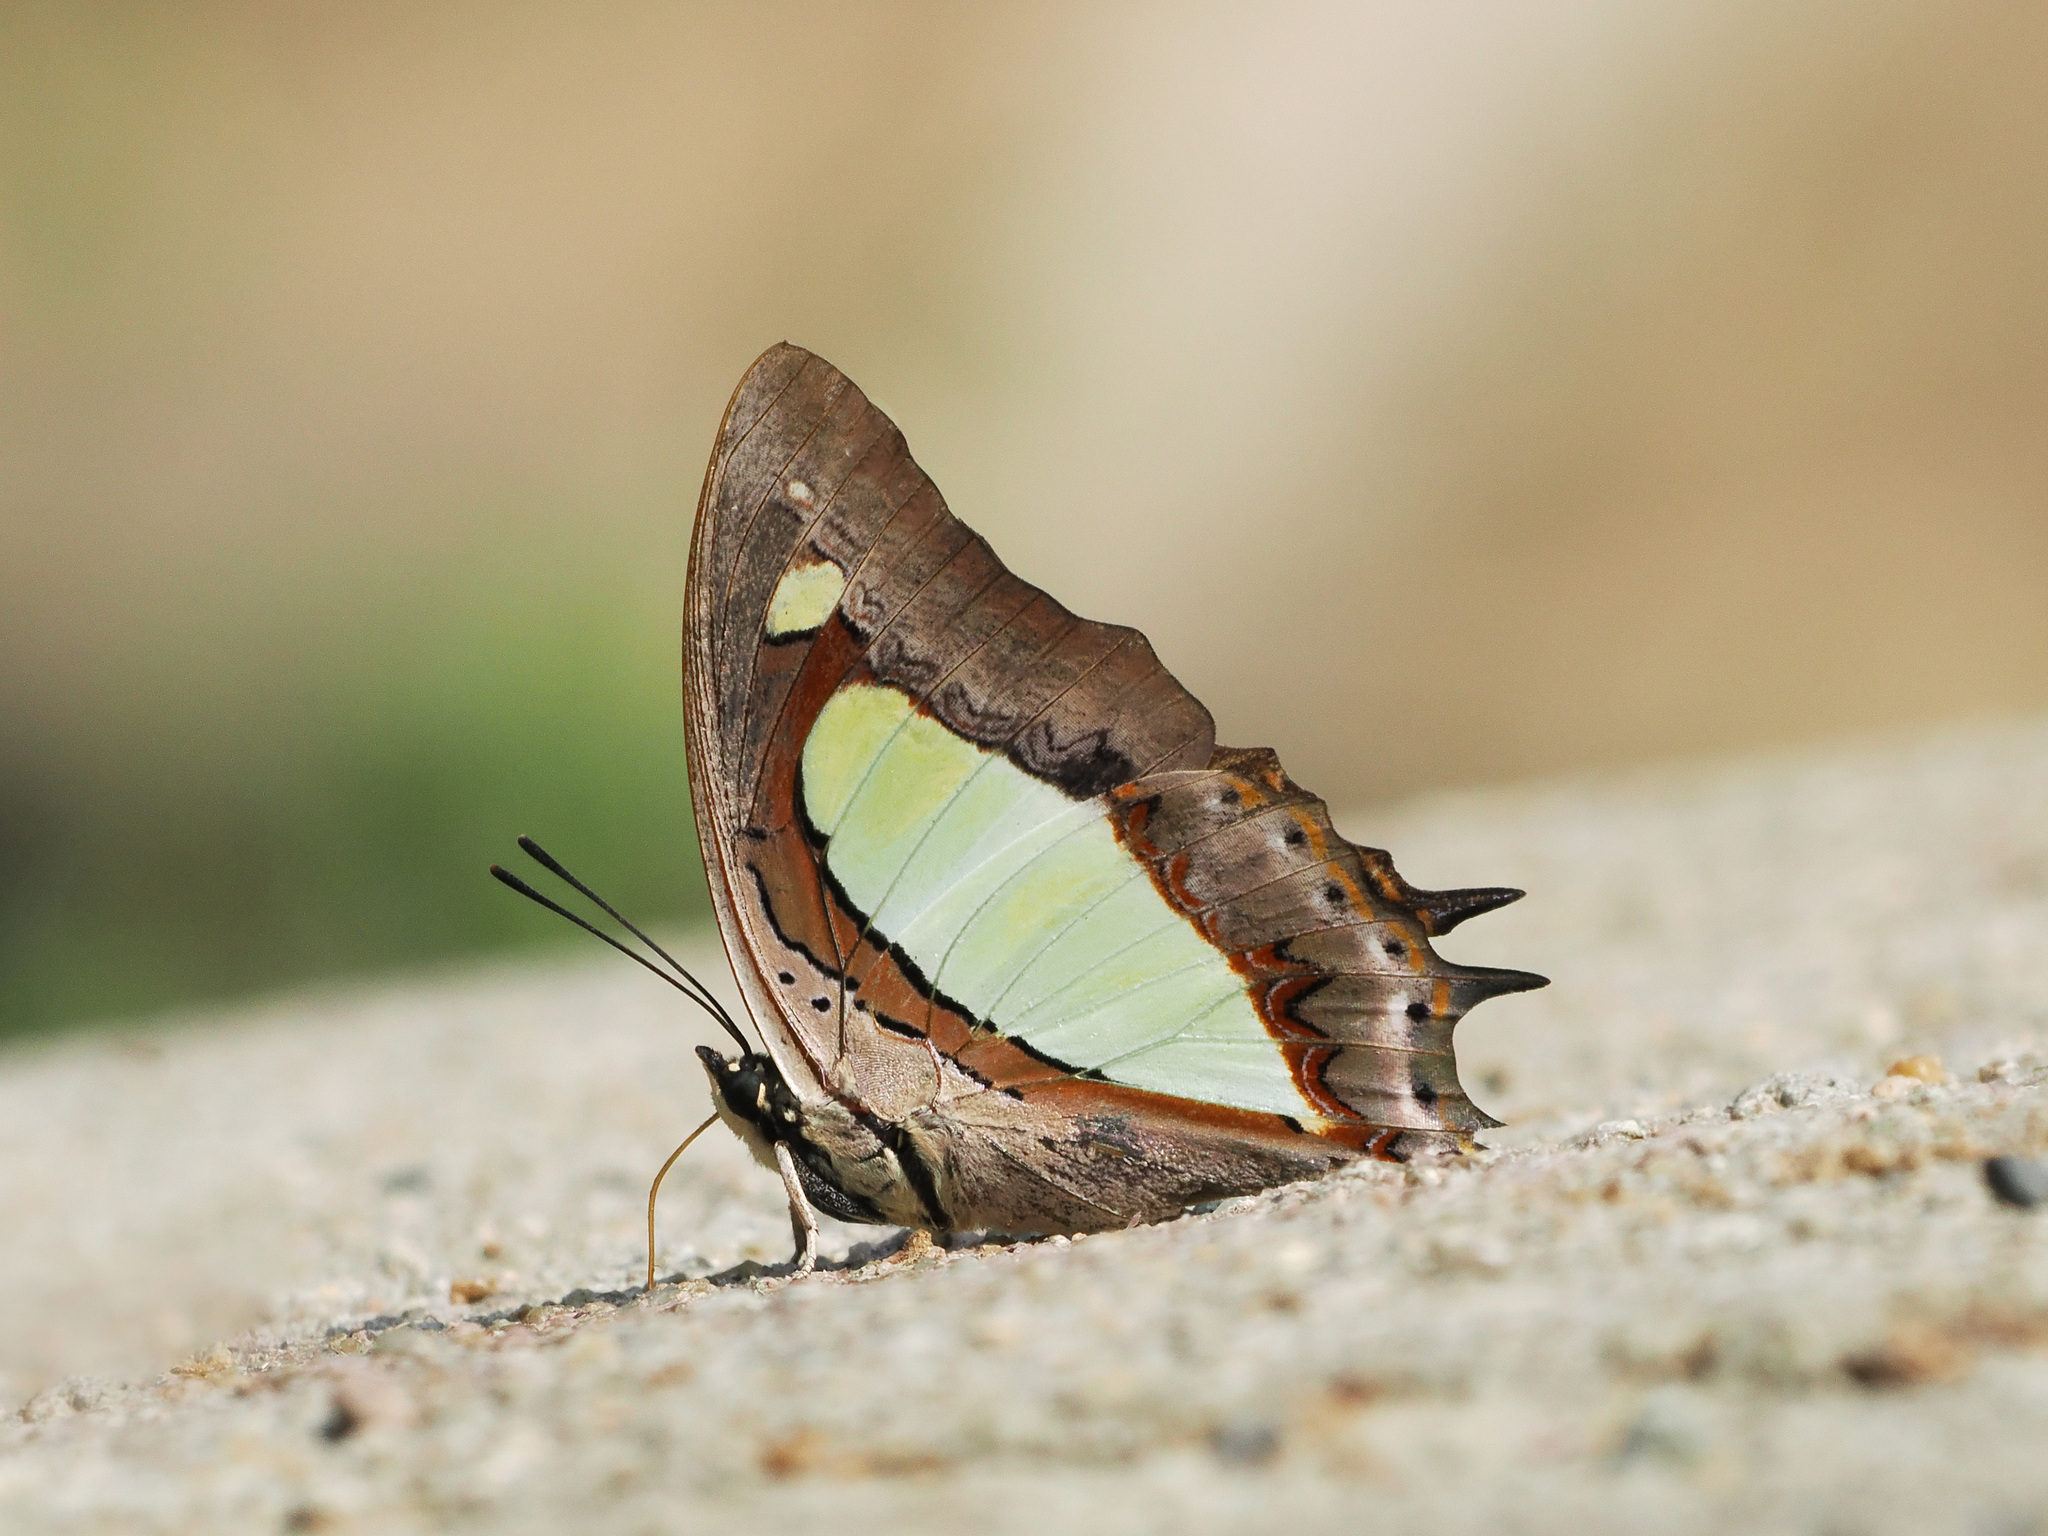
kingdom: Animalia
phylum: Arthropoda
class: Insecta
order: Lepidoptera
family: Nymphalidae
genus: Polyura
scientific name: Polyura athamas
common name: Common nawab
